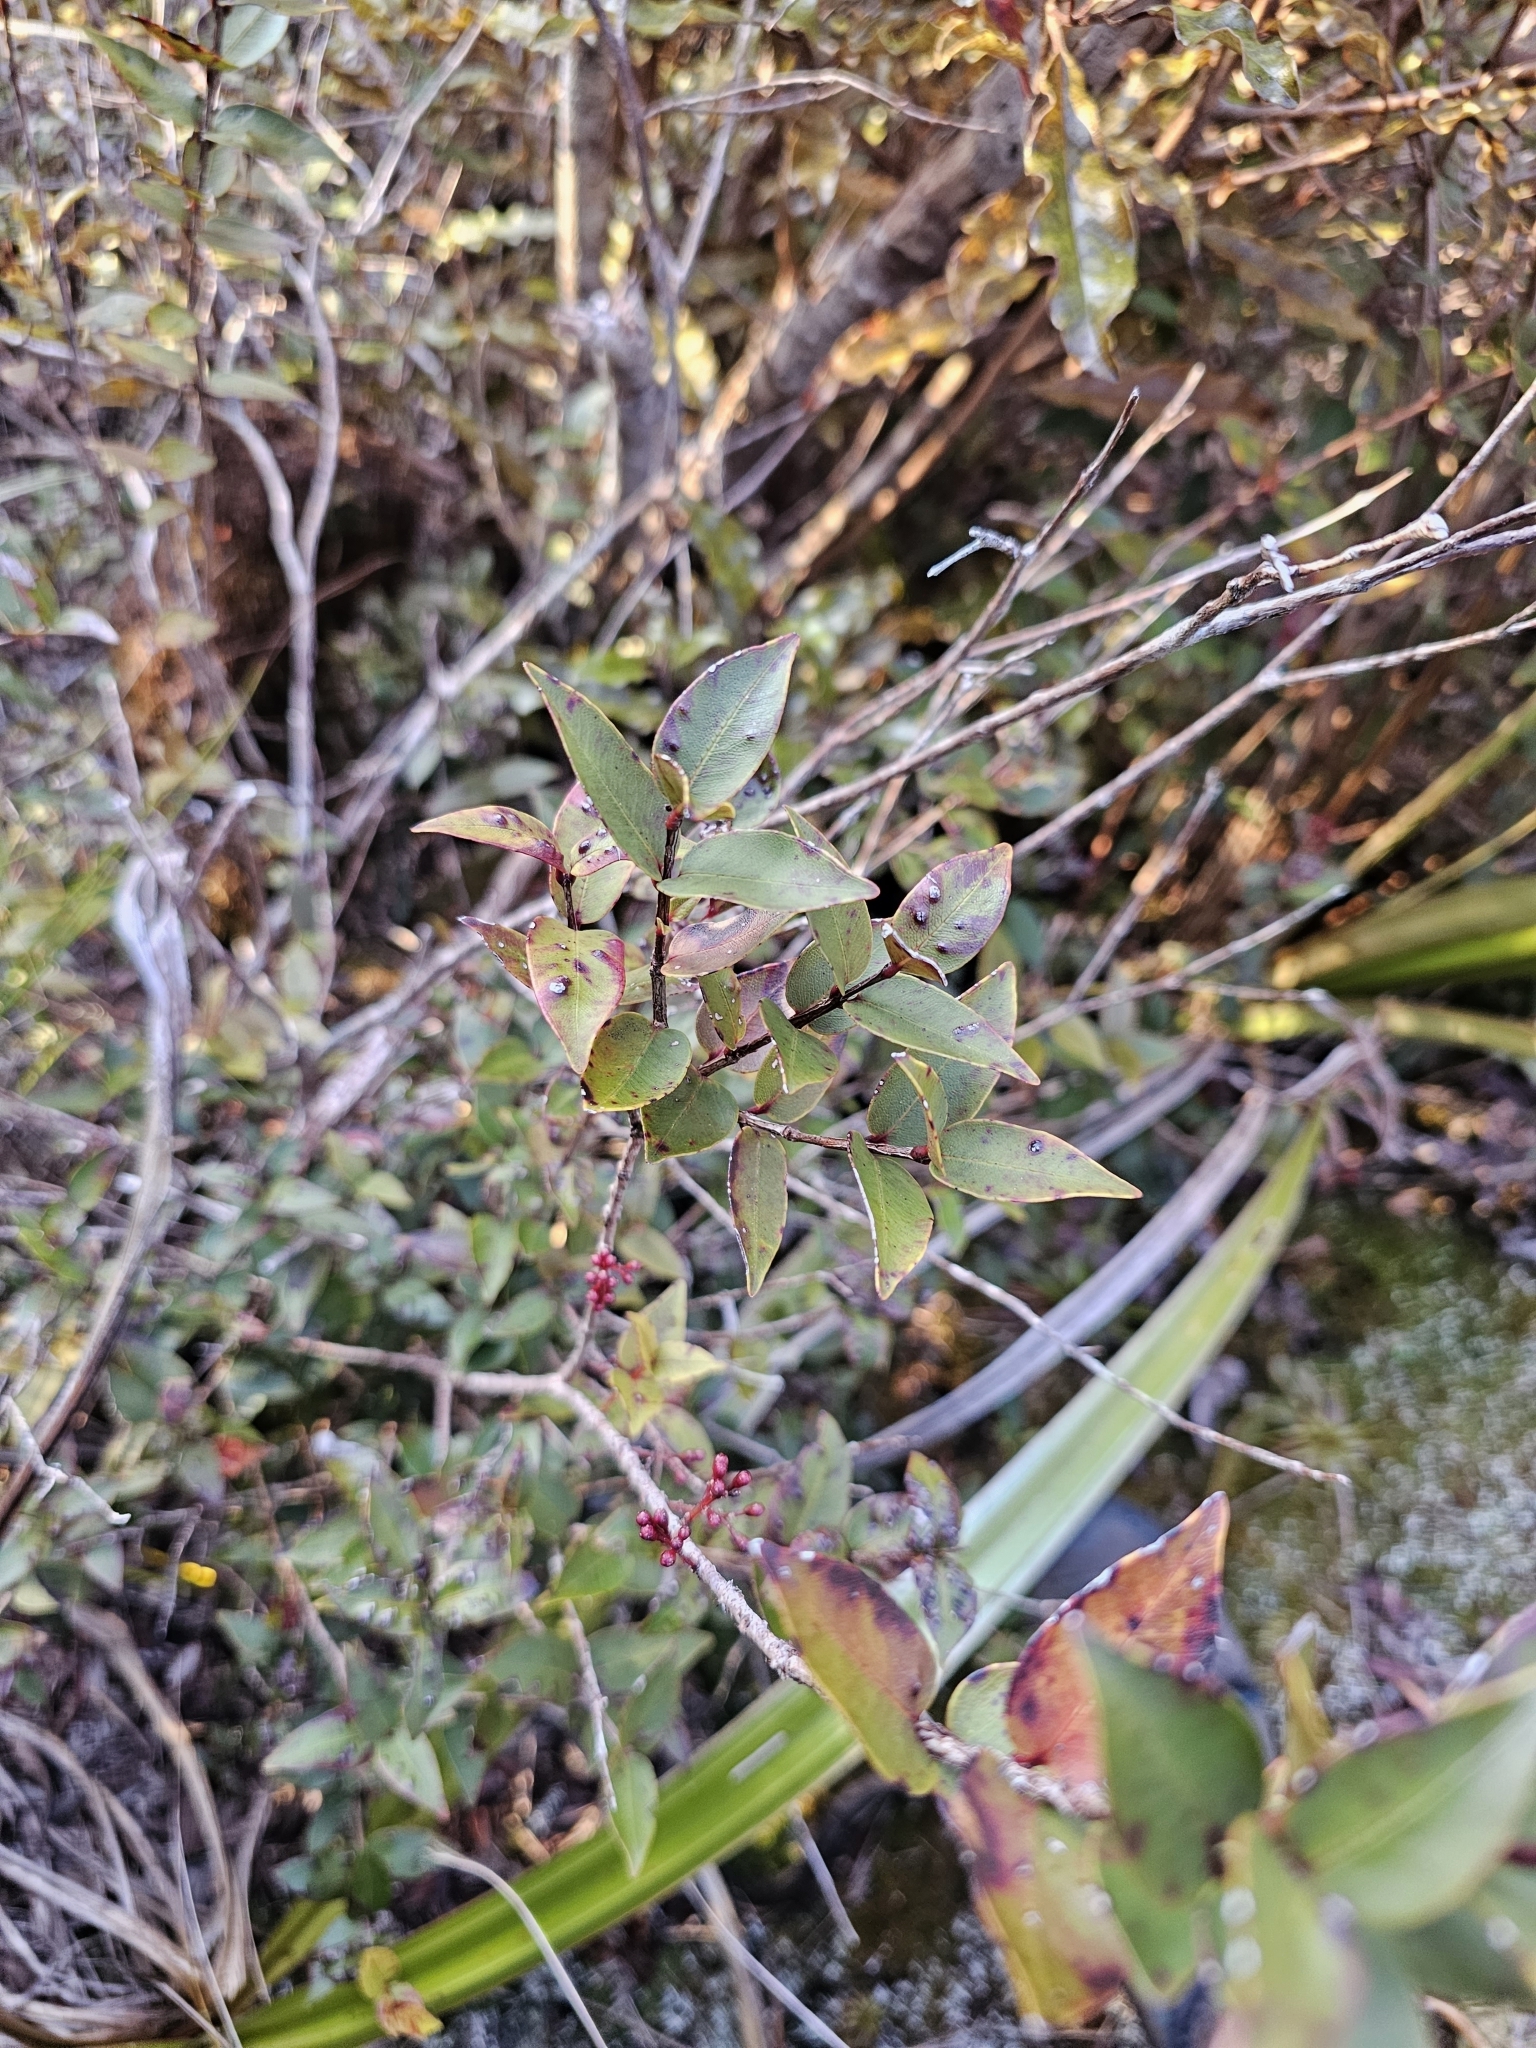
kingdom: Plantae
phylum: Tracheophyta
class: Magnoliopsida
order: Myrtales
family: Myrtaceae
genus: Metrosideros
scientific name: Metrosideros parkinsonii
